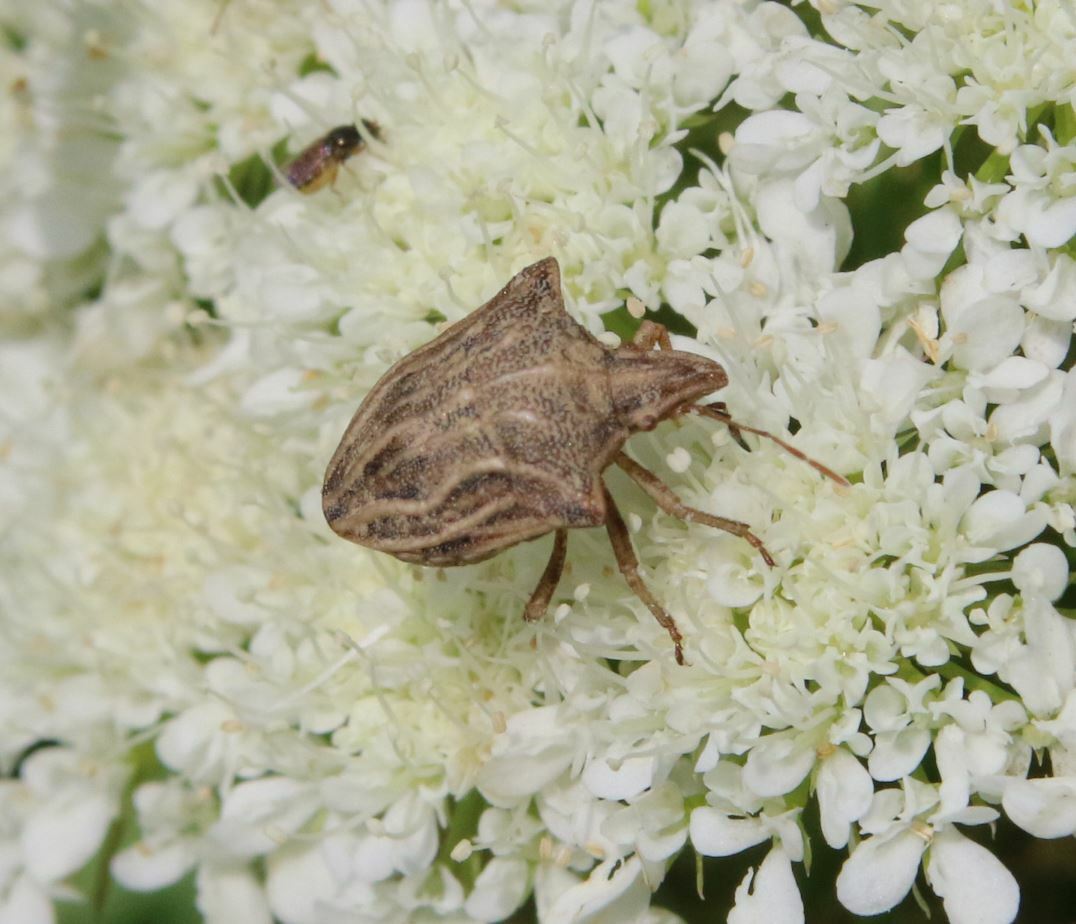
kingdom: Animalia
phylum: Arthropoda
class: Insecta
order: Hemiptera
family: Pentatomidae
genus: Ancyrosoma
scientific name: Ancyrosoma leucogrammes
